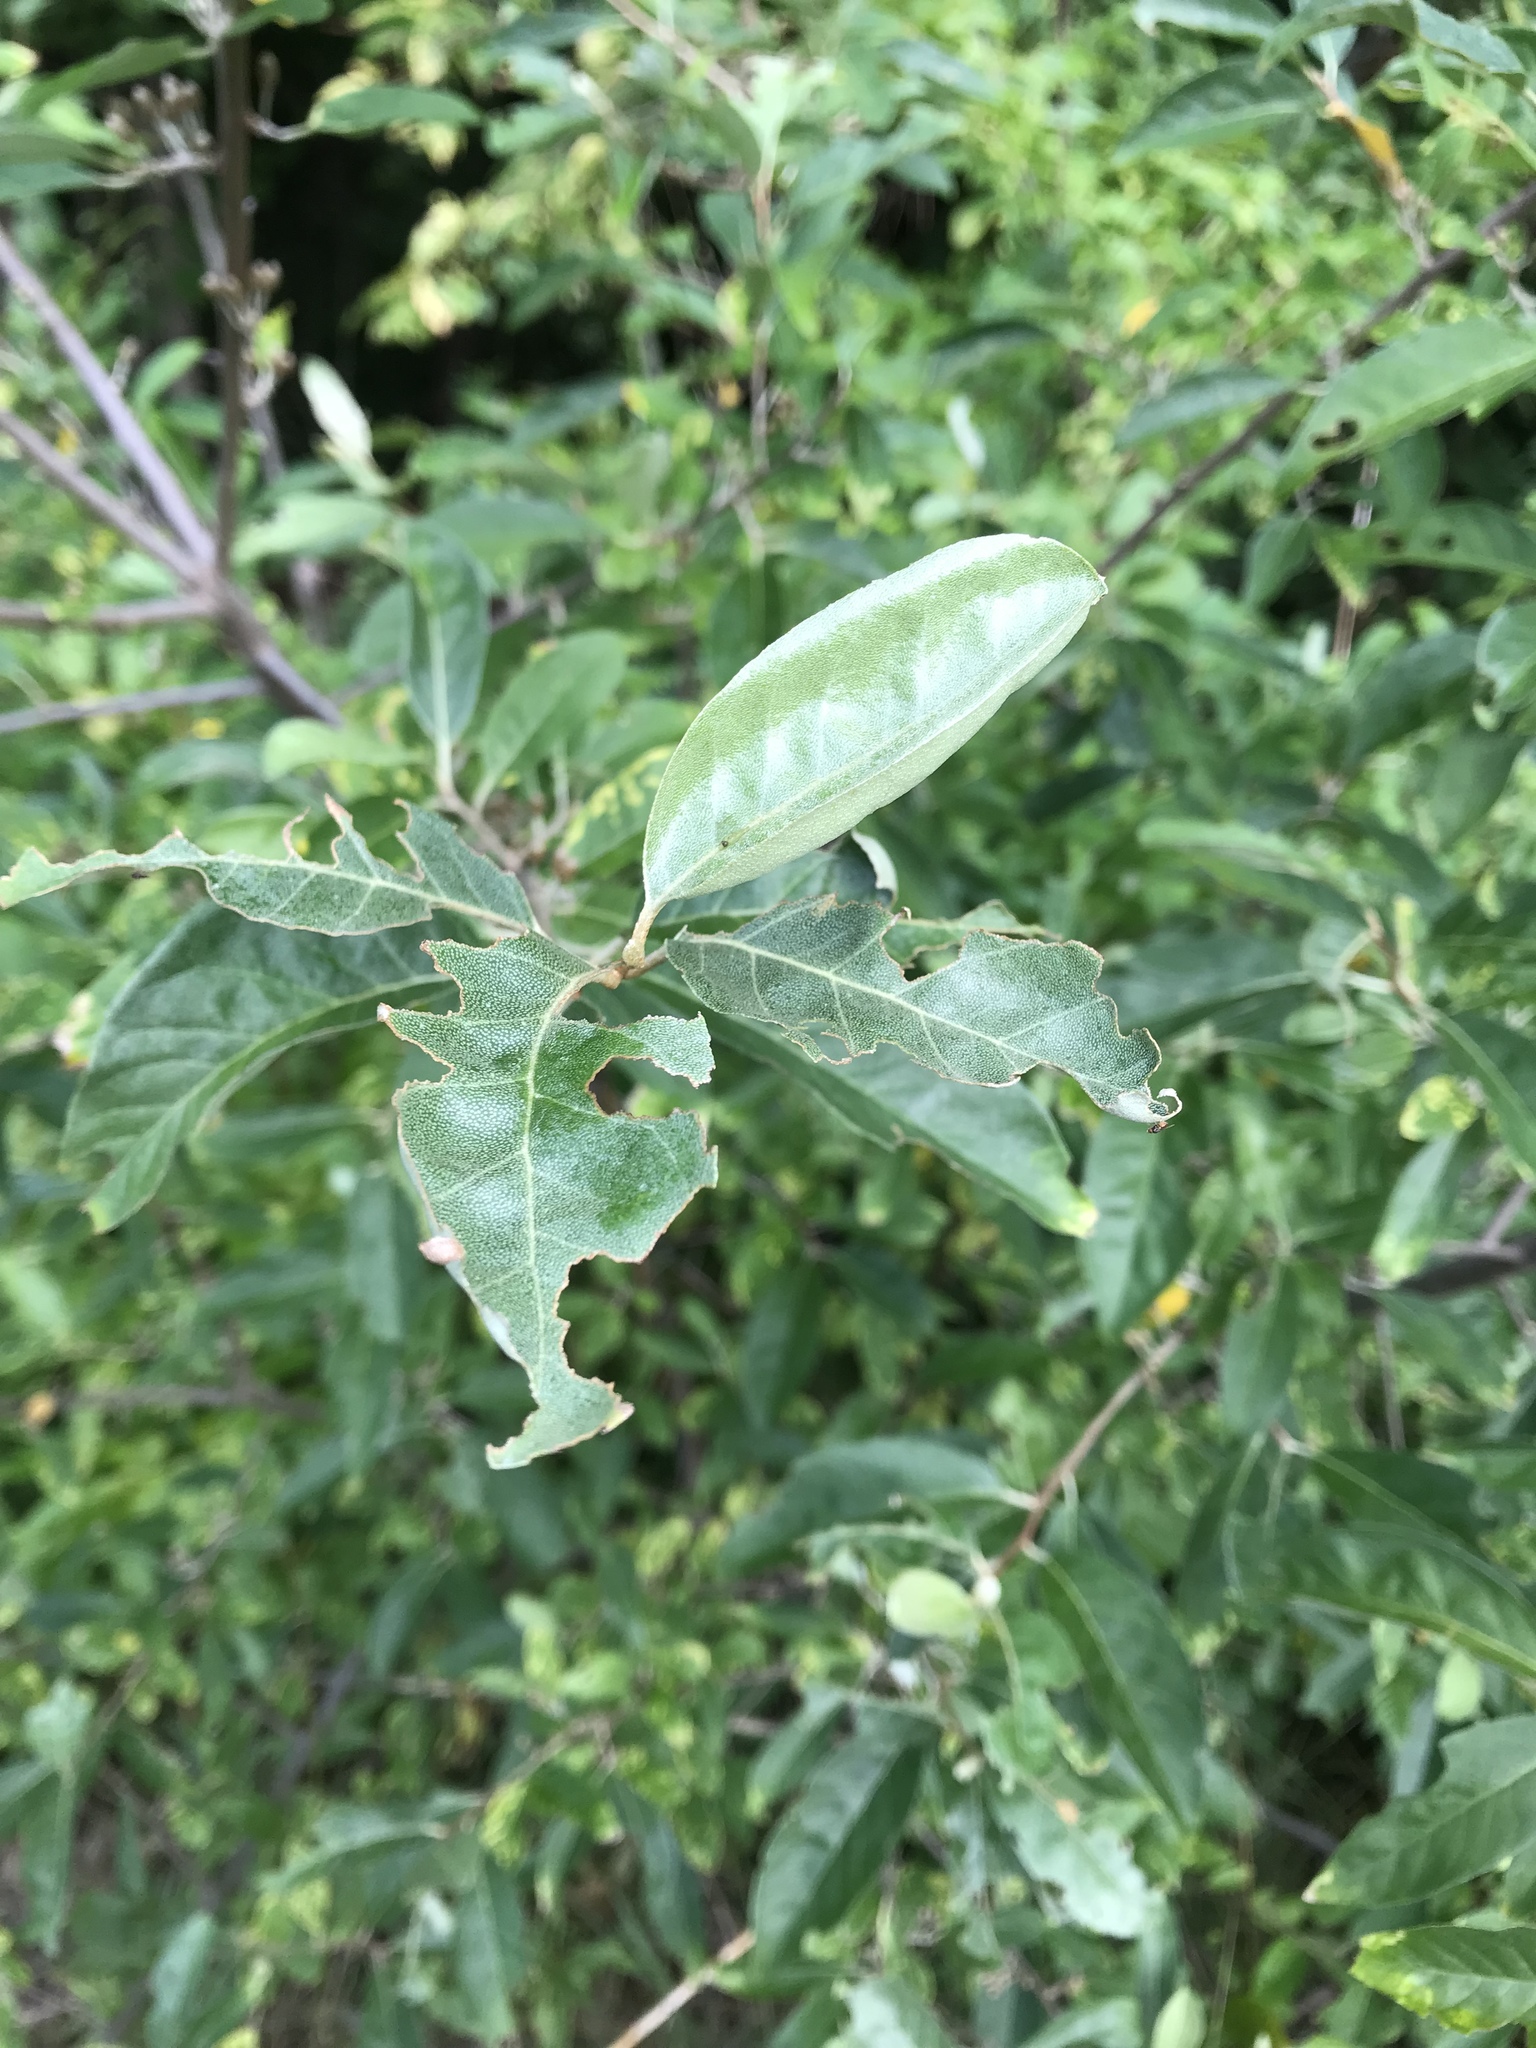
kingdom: Plantae
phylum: Tracheophyta
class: Magnoliopsida
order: Rosales
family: Elaeagnaceae
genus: Elaeagnus
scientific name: Elaeagnus umbellata
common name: Autumn olive
